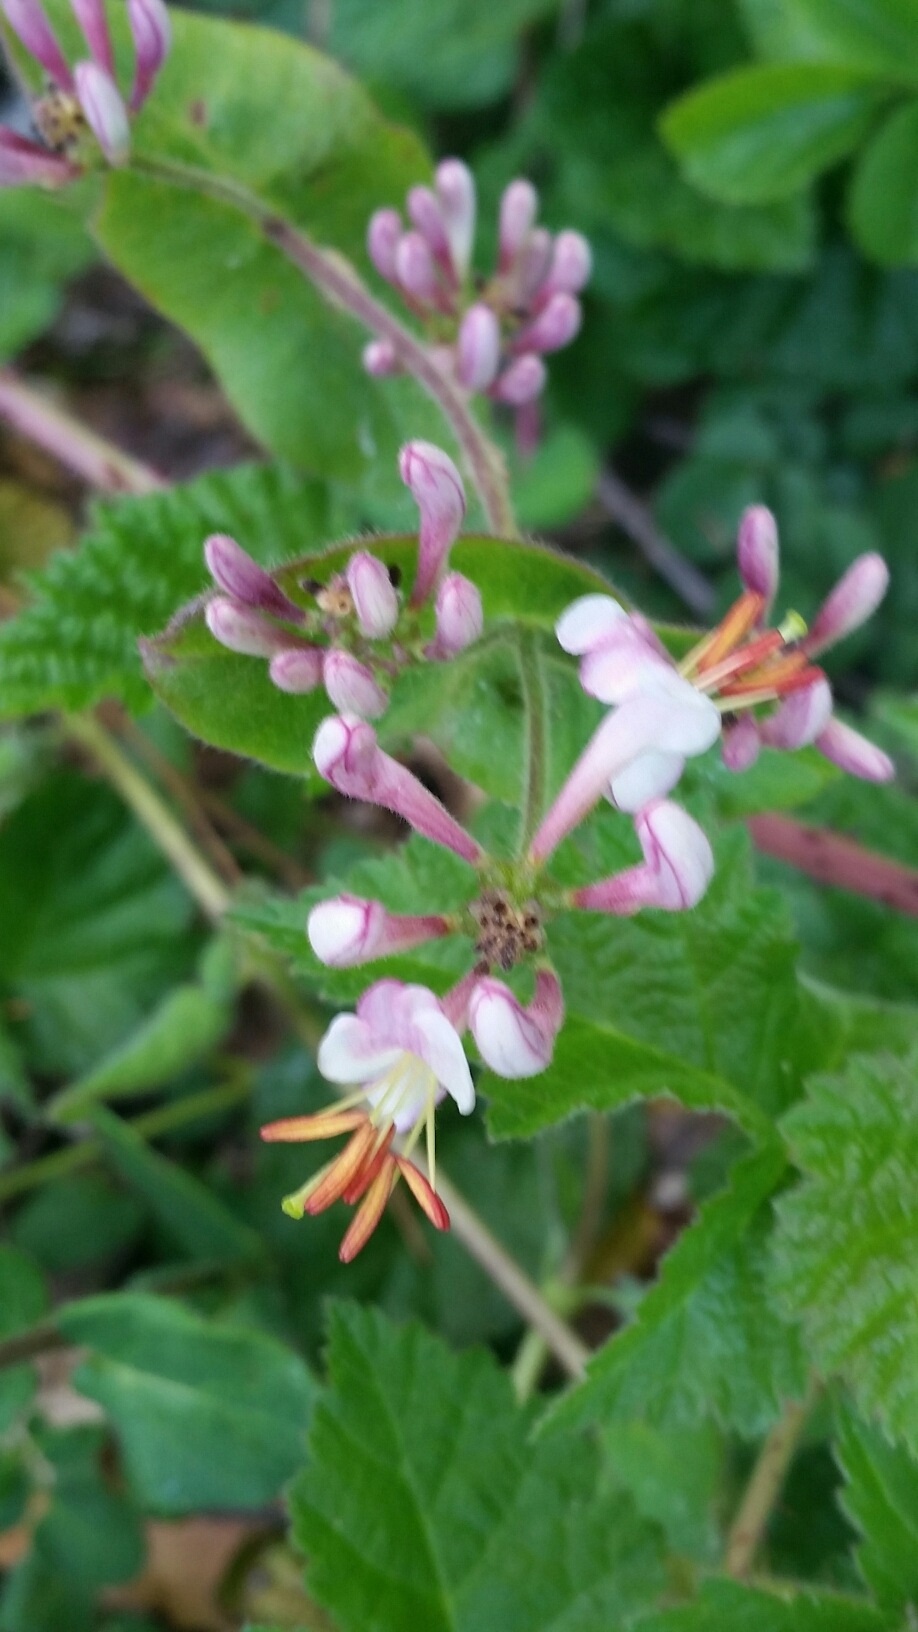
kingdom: Plantae
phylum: Tracheophyta
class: Magnoliopsida
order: Dipsacales
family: Caprifoliaceae
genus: Lonicera
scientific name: Lonicera hispidula
